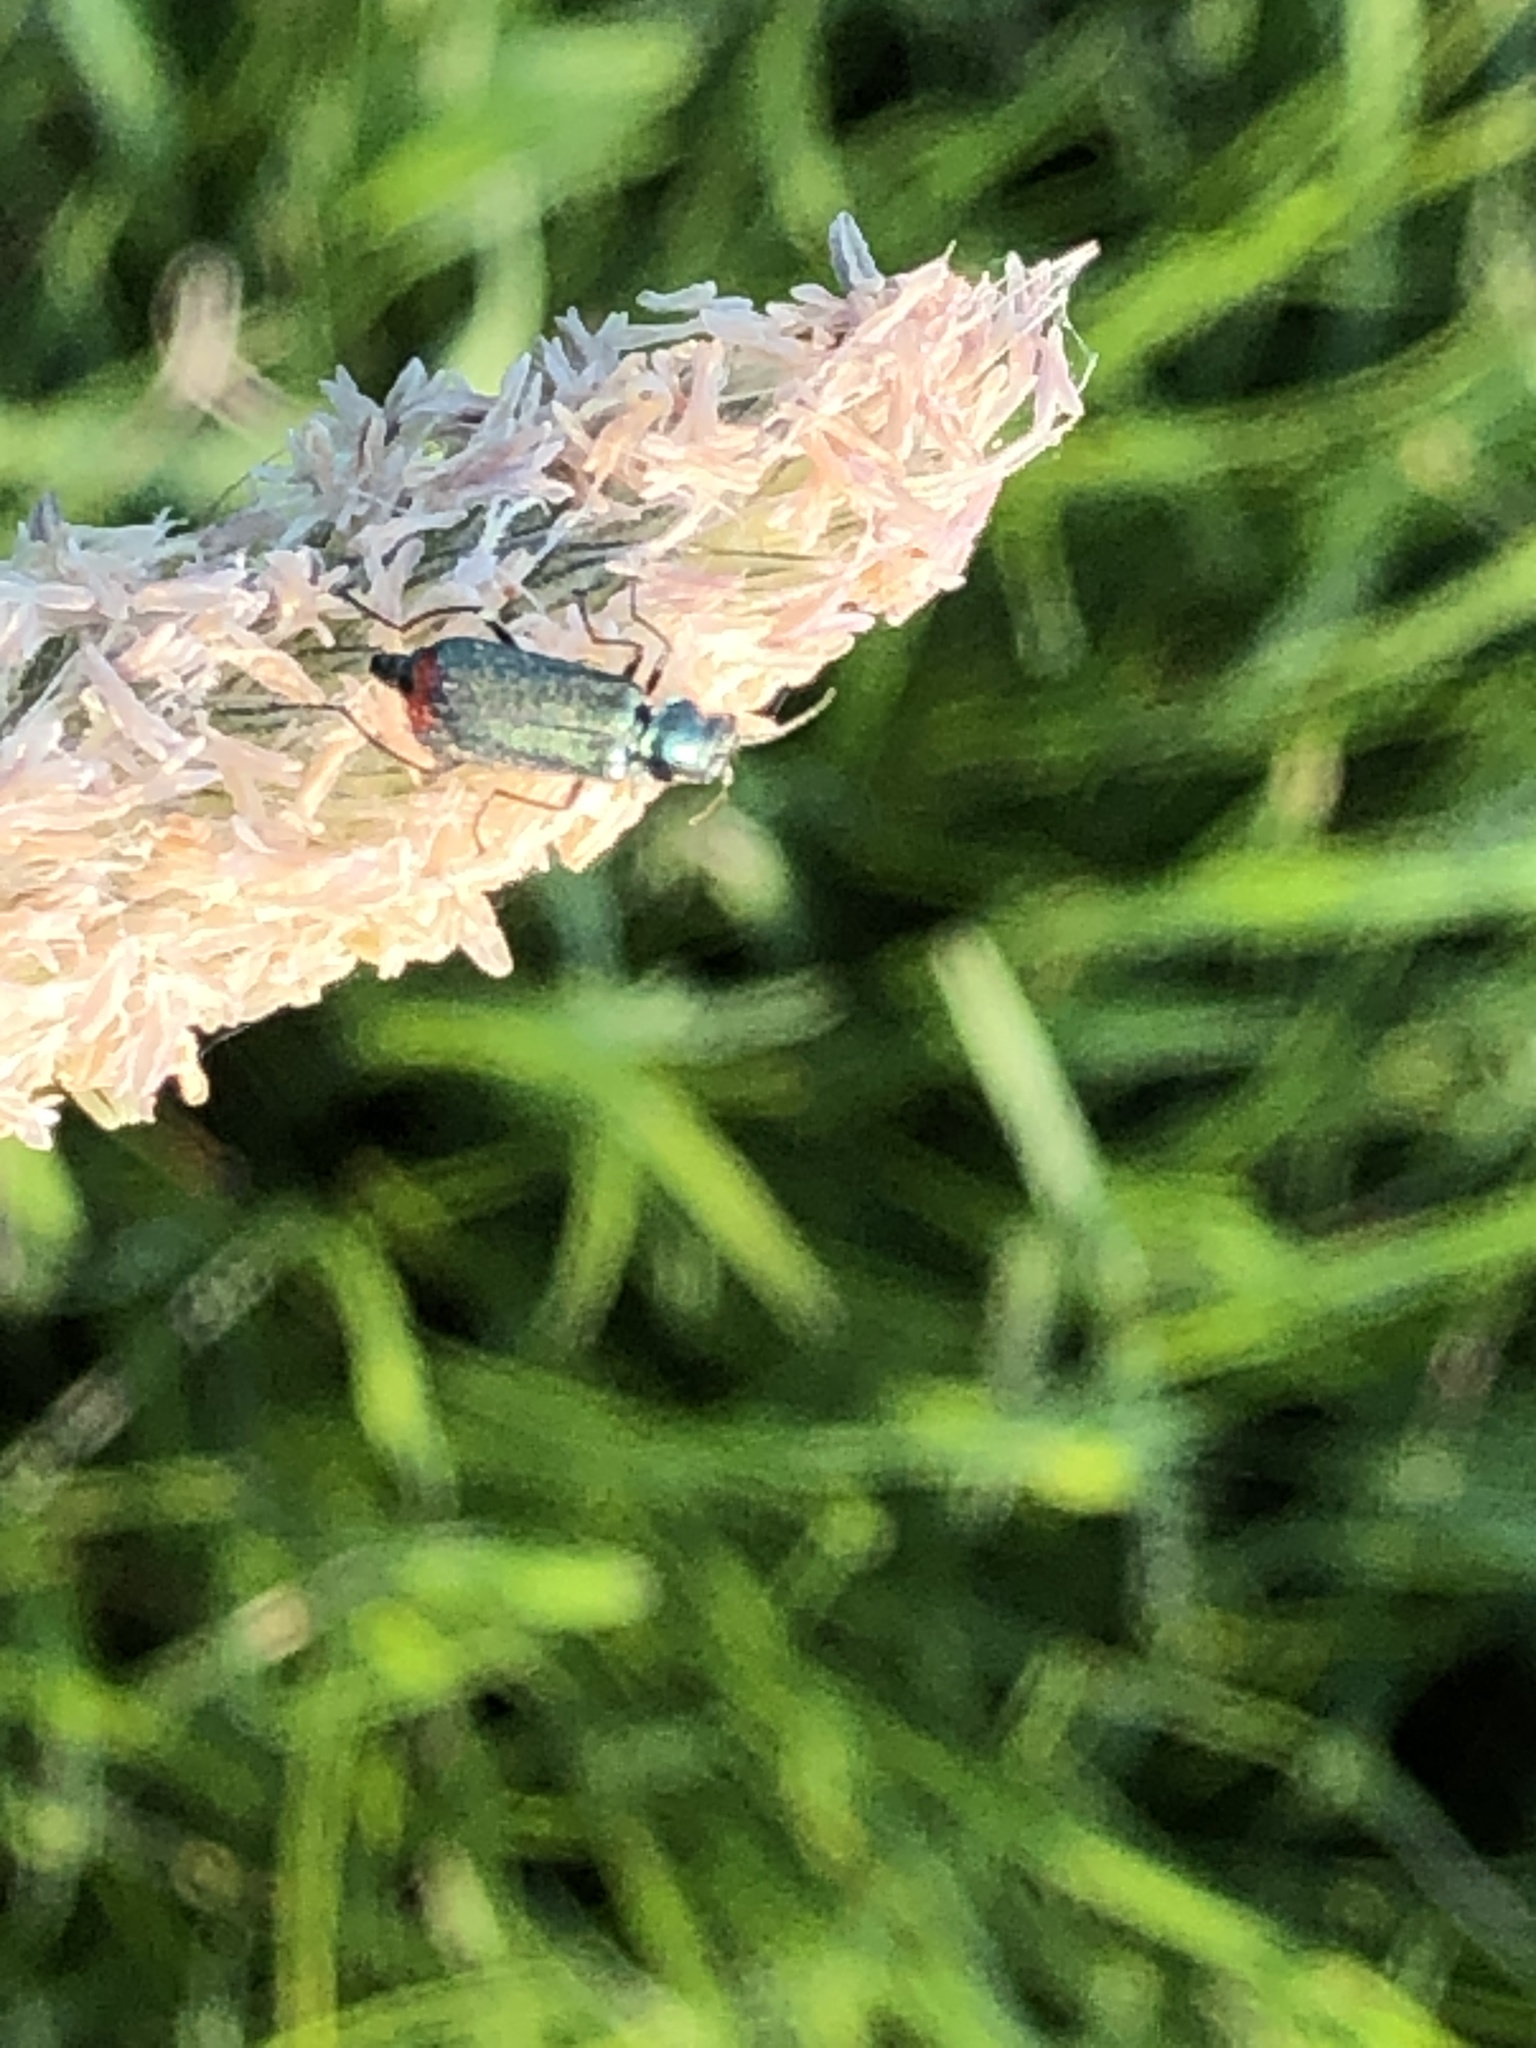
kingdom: Animalia
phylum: Arthropoda
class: Insecta
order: Coleoptera
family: Melyridae
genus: Malachius
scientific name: Malachius bipustulatus
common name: Malachite beetle
